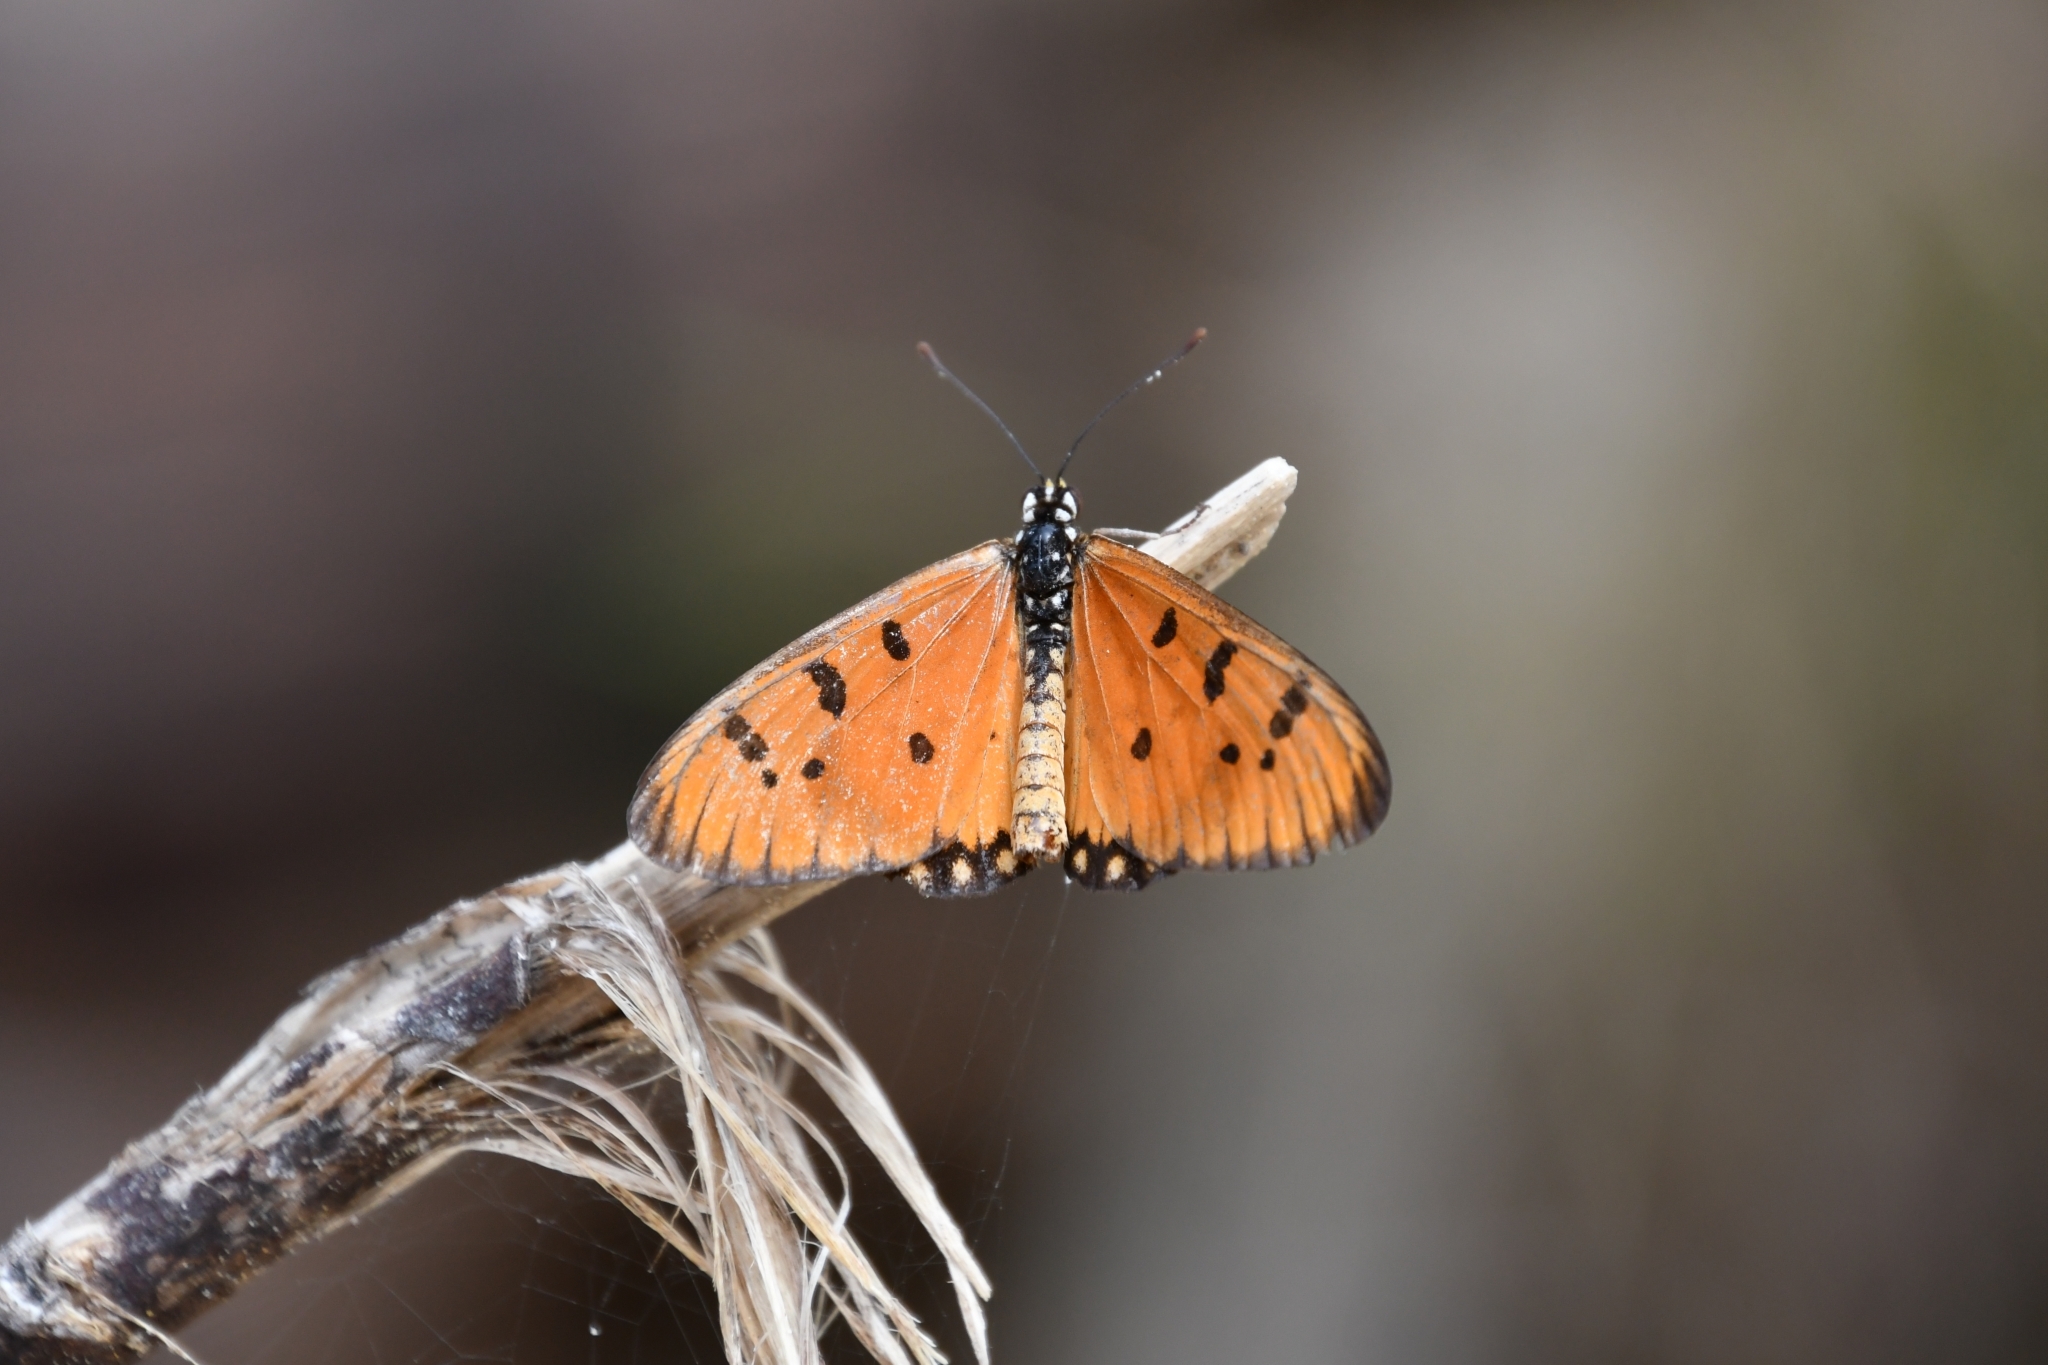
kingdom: Animalia
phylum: Arthropoda
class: Insecta
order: Lepidoptera
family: Nymphalidae
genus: Acraea
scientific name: Acraea terpsicore
